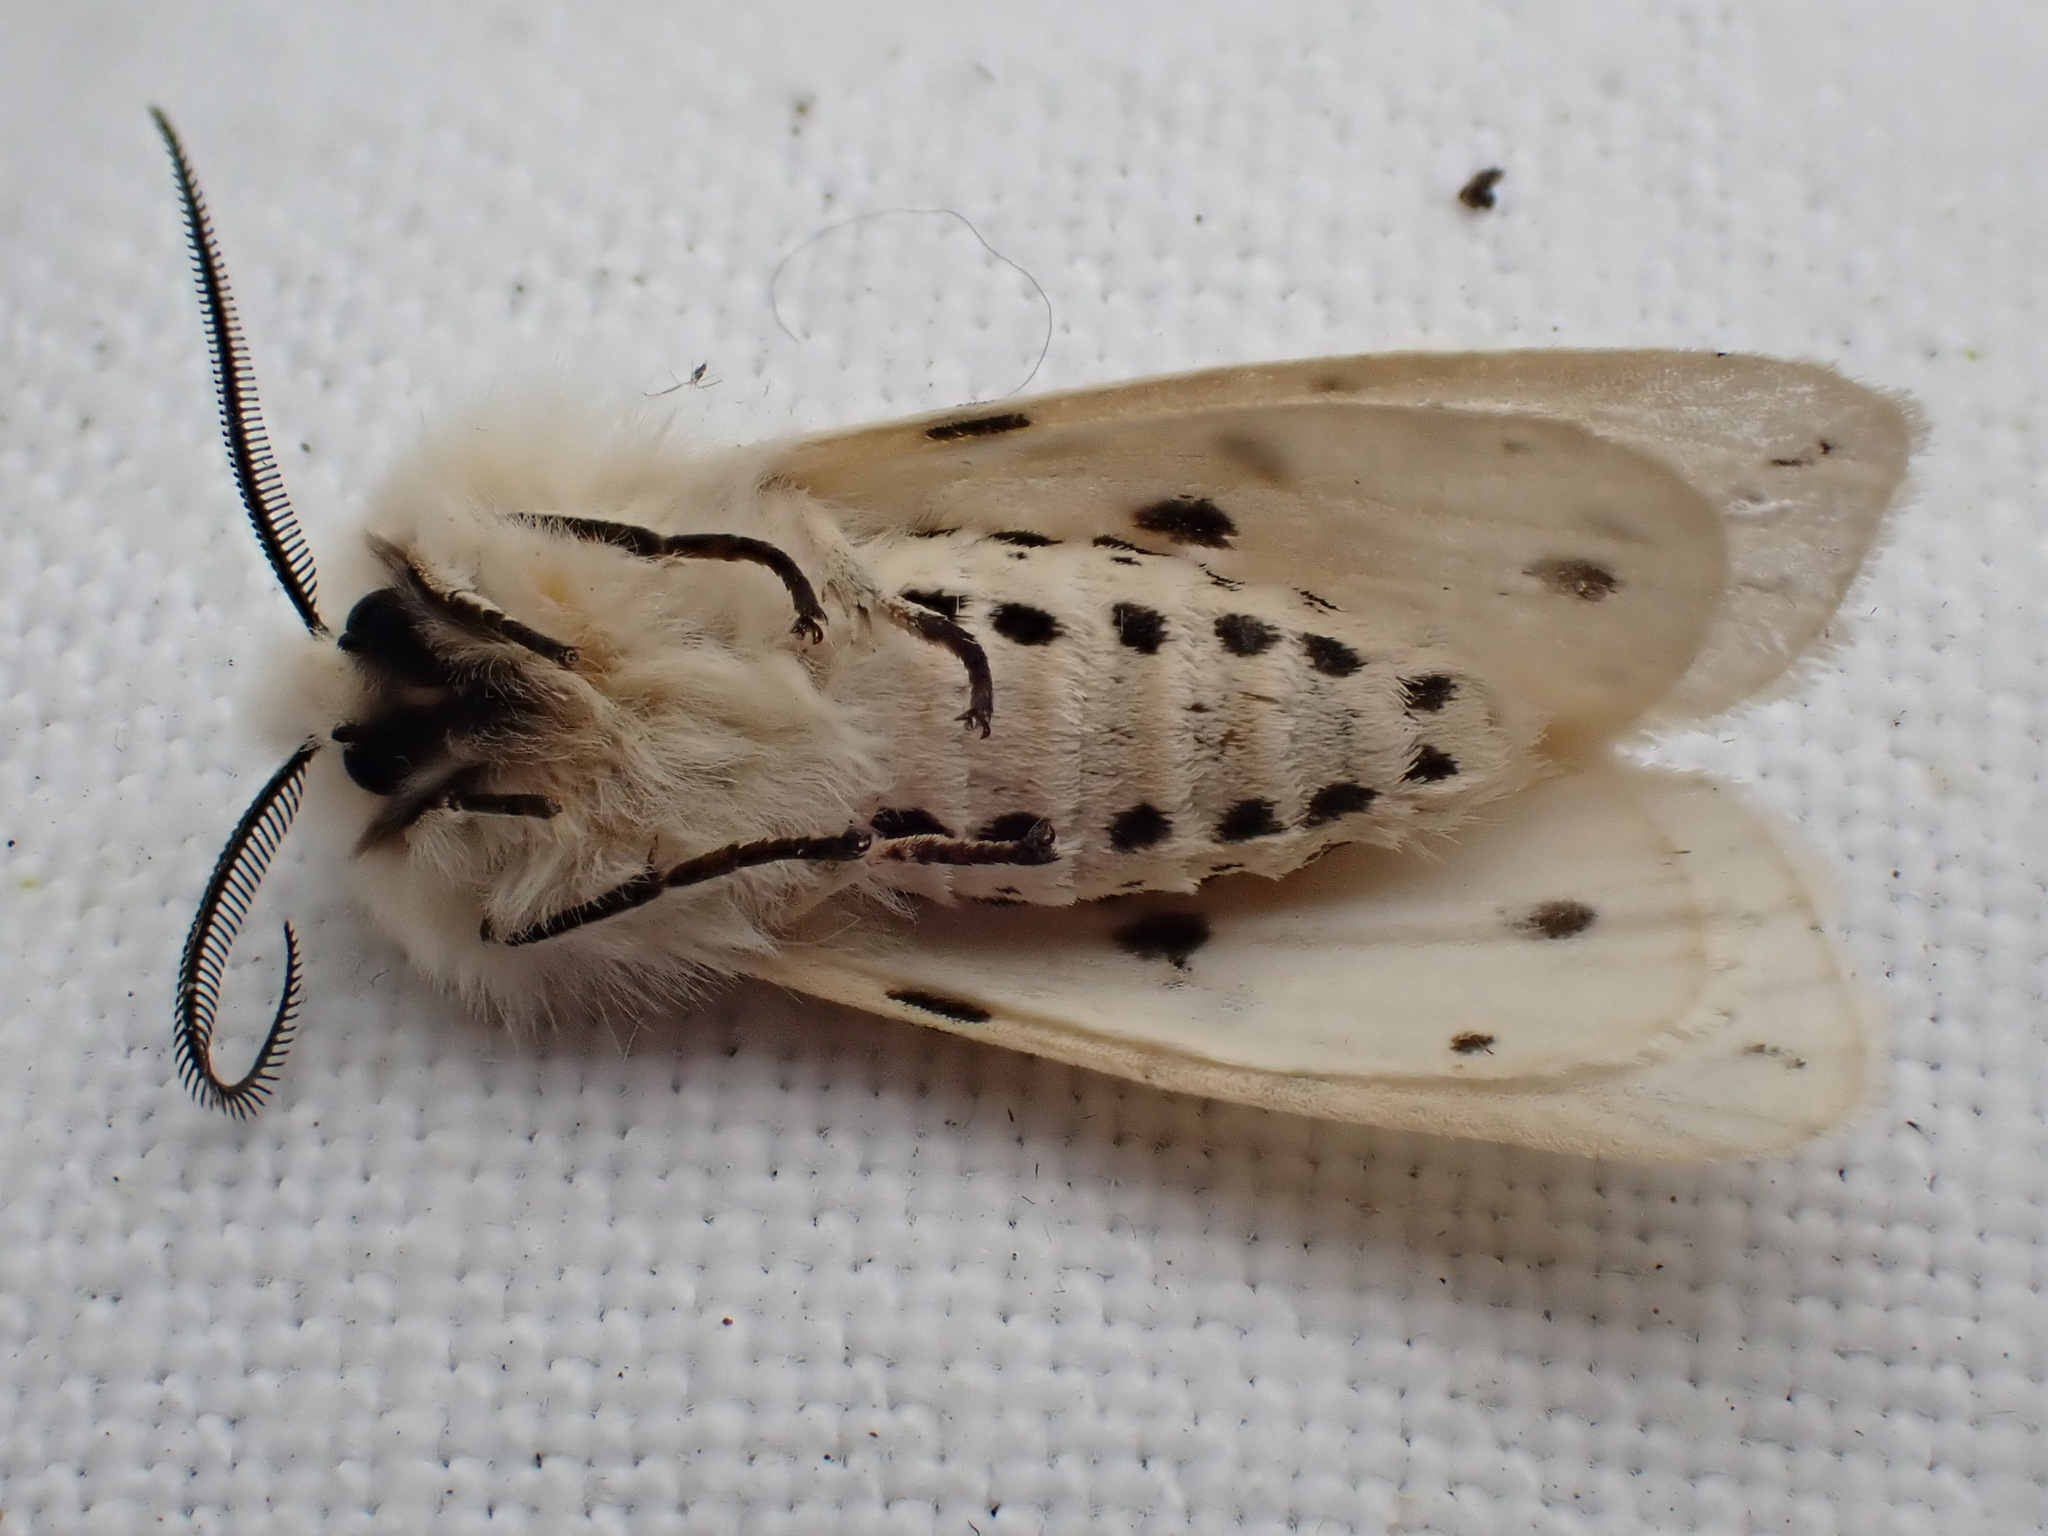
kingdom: Animalia
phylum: Arthropoda
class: Insecta
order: Lepidoptera
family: Erebidae
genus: Spilosoma
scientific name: Spilosoma lubricipeda
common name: White ermine
